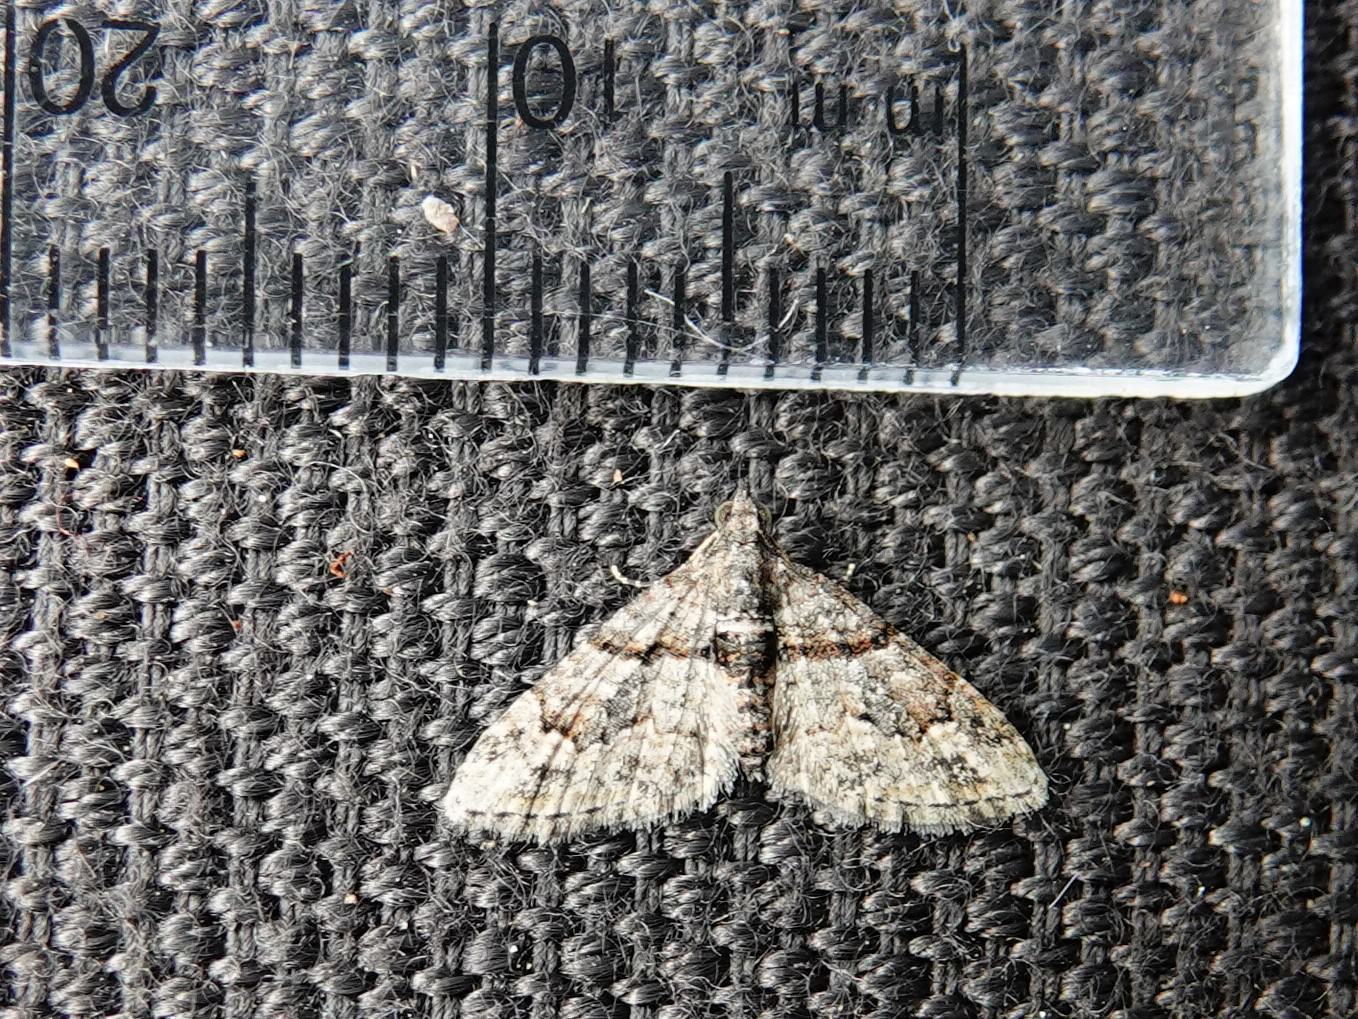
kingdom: Animalia
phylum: Arthropoda
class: Insecta
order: Lepidoptera
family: Geometridae
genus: Phrissogonus
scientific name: Phrissogonus laticostata
